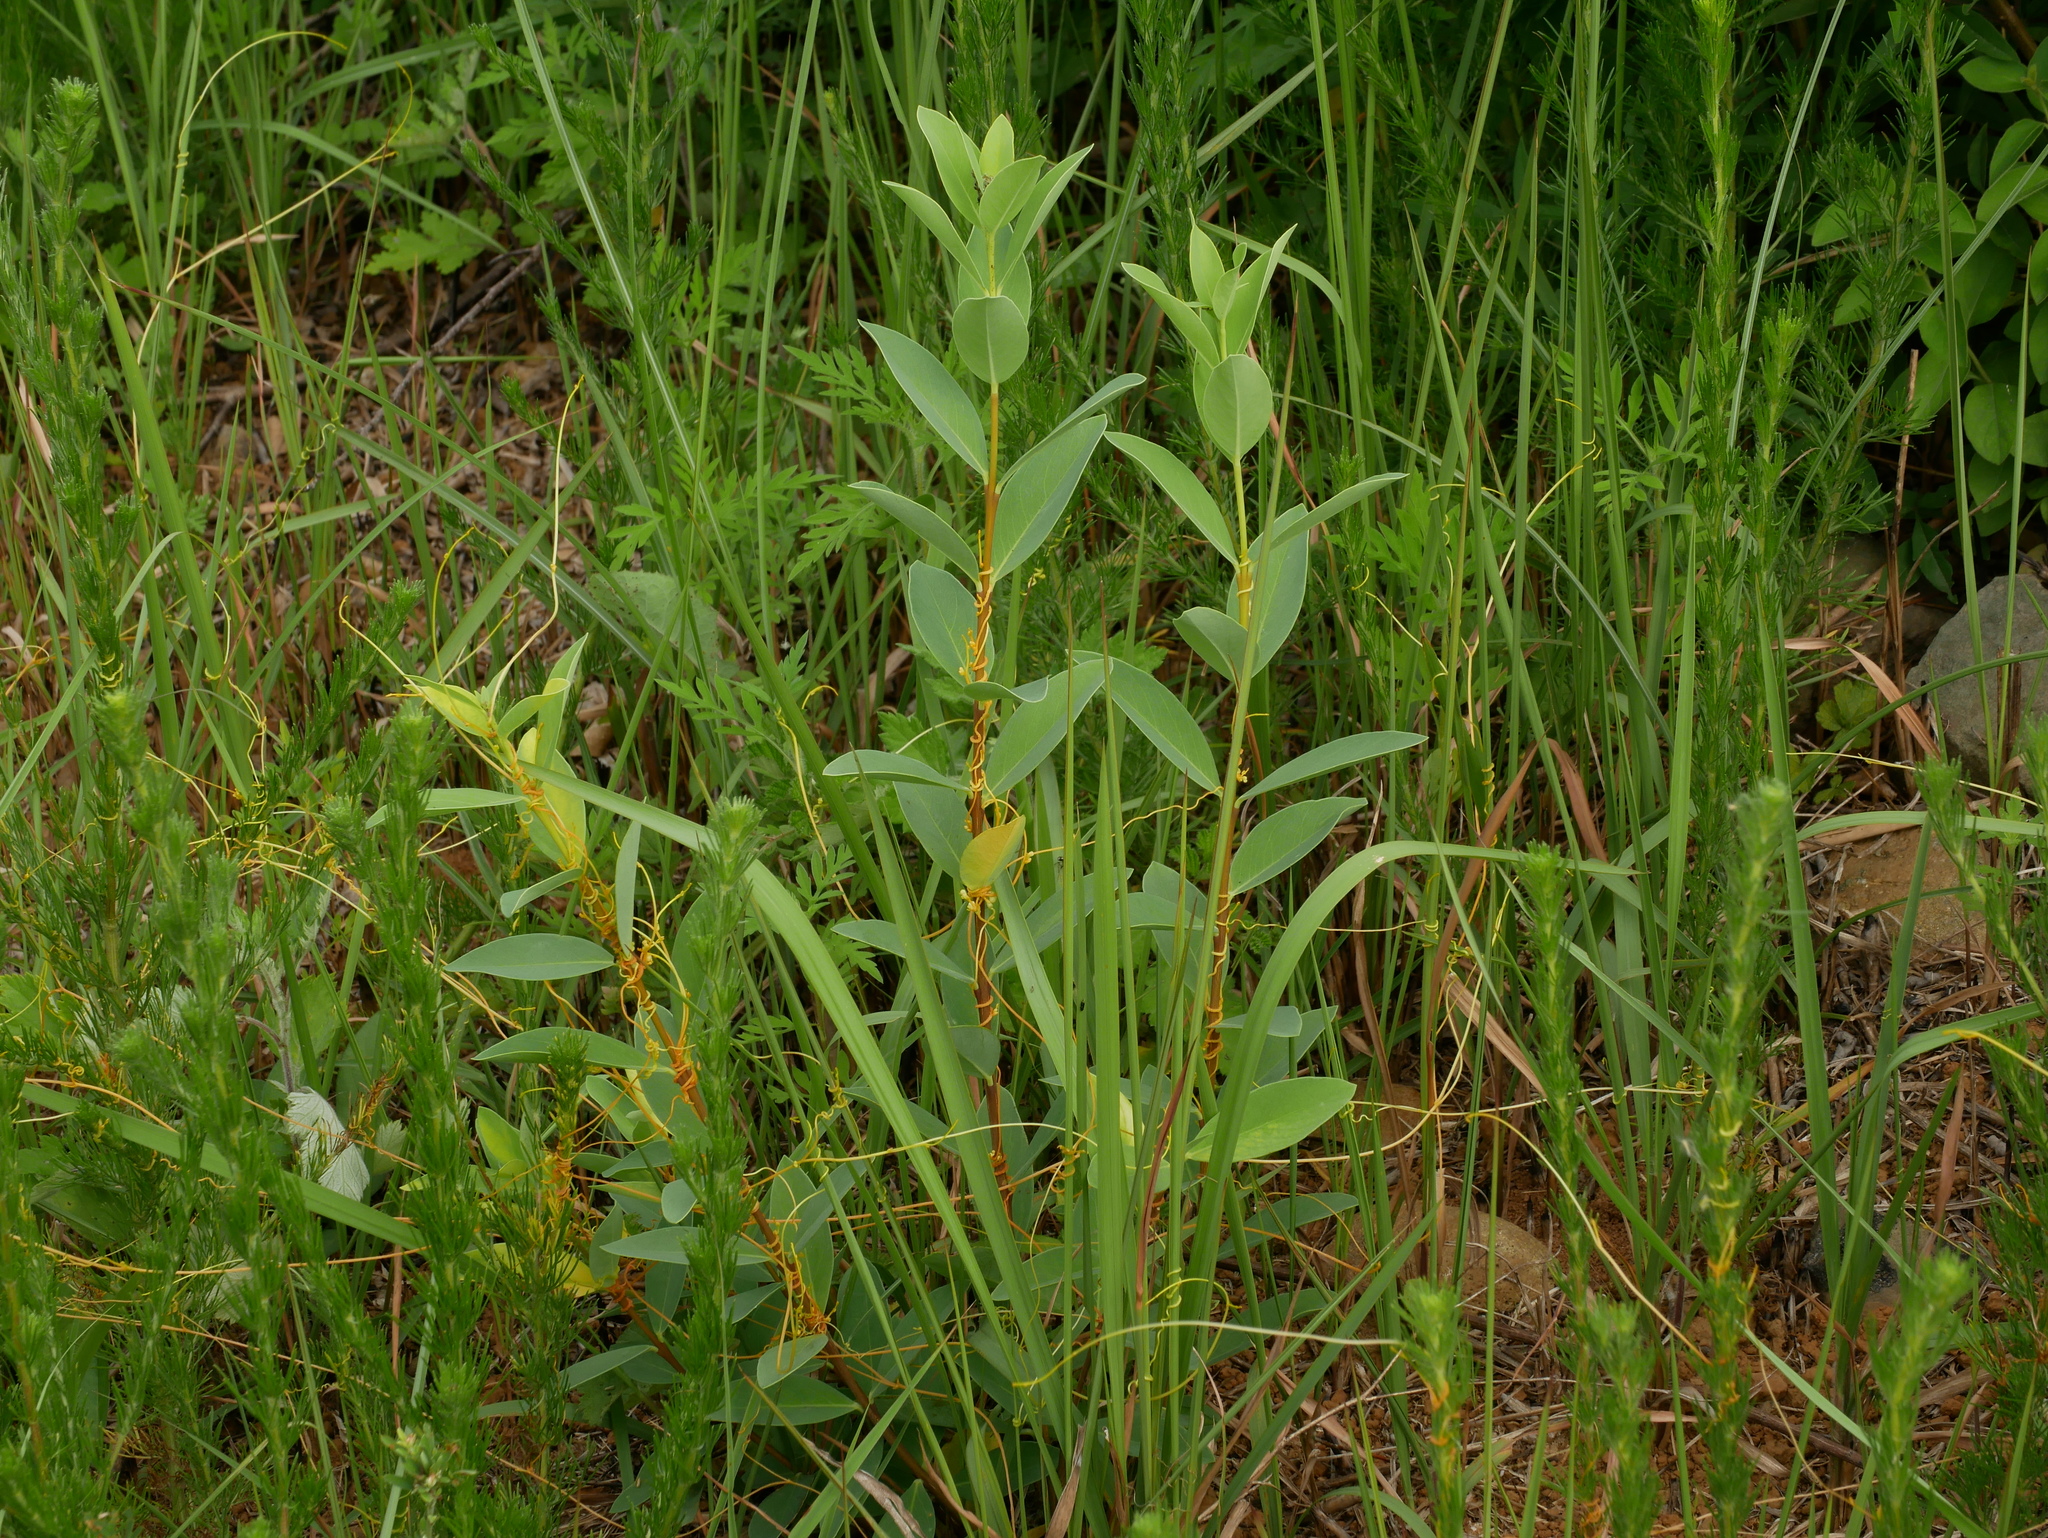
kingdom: Plantae
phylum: Tracheophyta
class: Magnoliopsida
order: Malvales
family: Thymelaeaceae
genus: Wikstroemia
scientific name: Wikstroemia indica
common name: Tiebush
